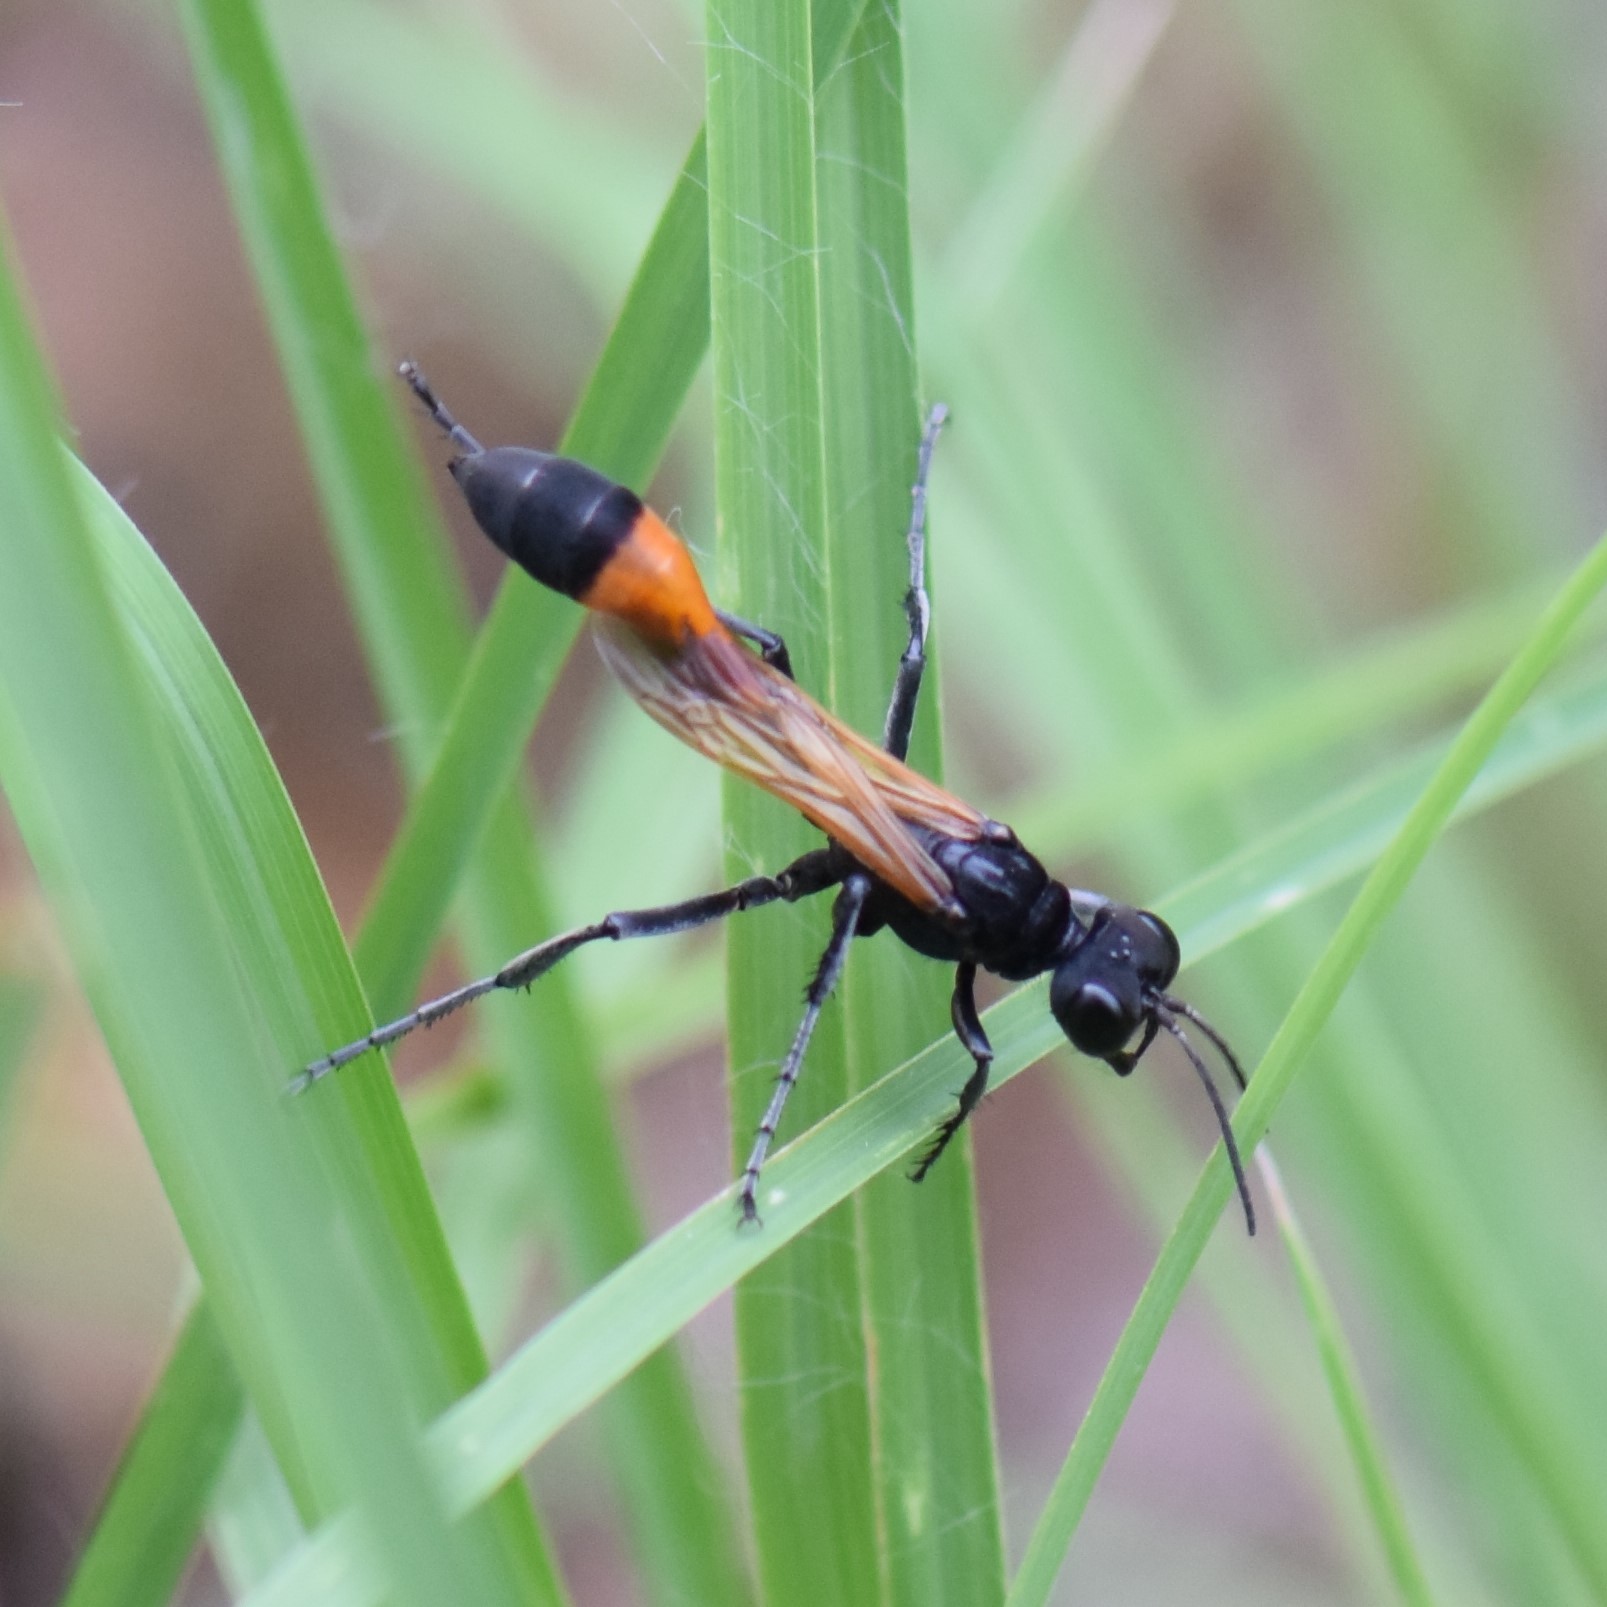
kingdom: Animalia
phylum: Arthropoda
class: Insecta
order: Hymenoptera
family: Sphecidae
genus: Ammophila
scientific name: Ammophila pictipennis
